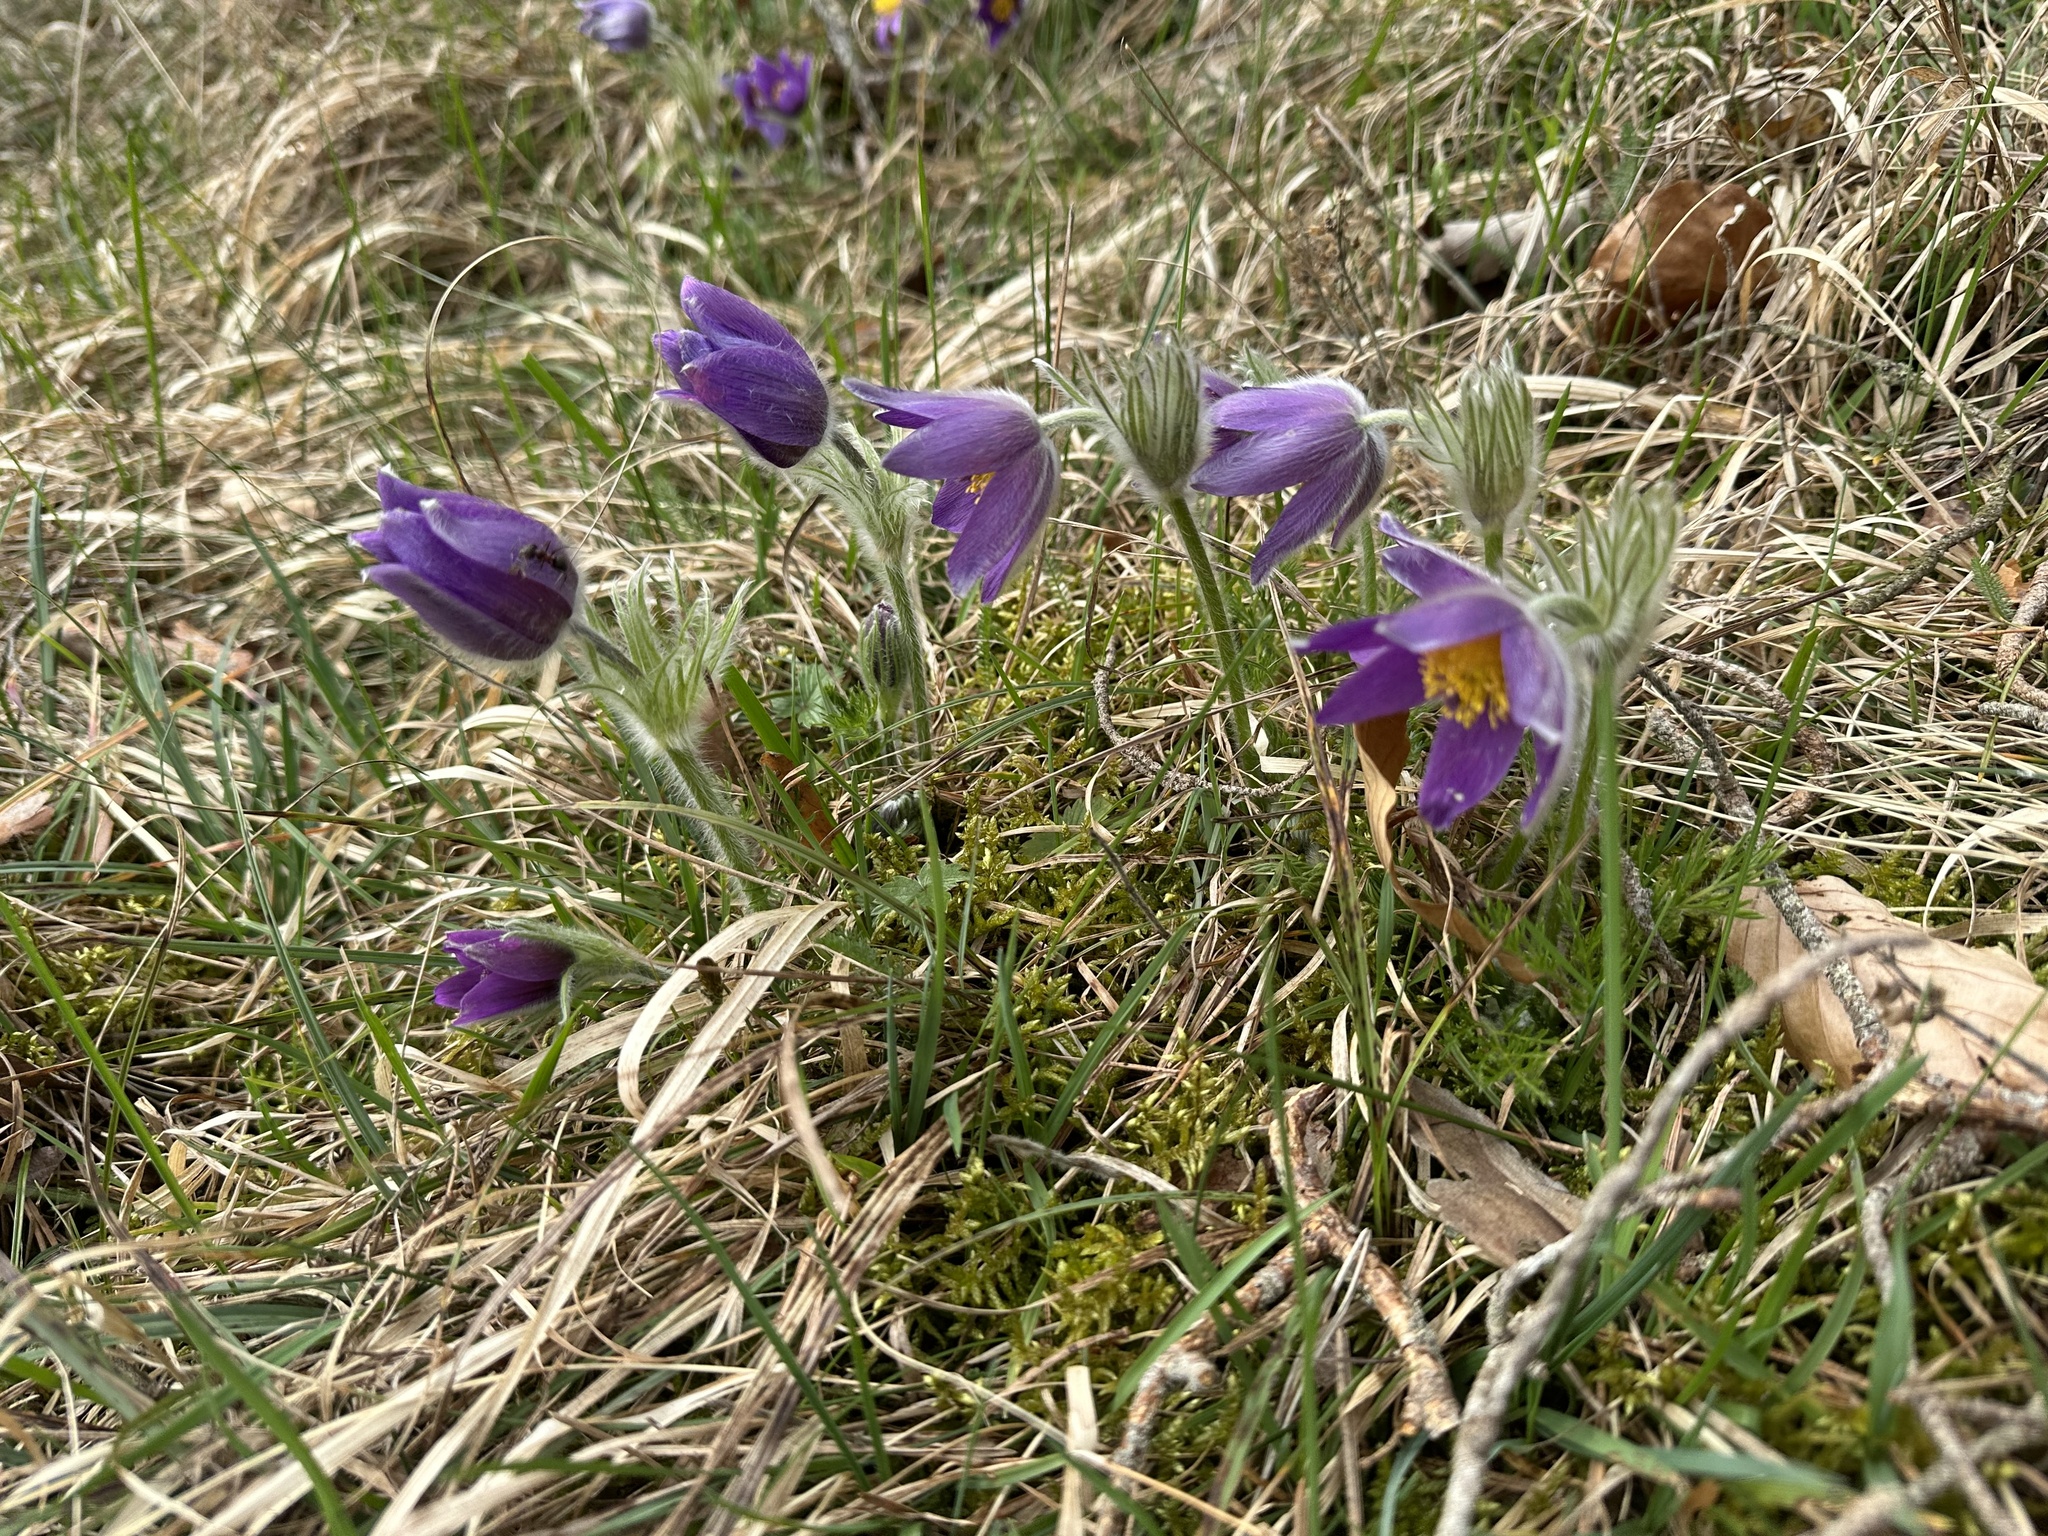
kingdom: Plantae
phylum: Tracheophyta
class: Magnoliopsida
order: Ranunculales
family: Ranunculaceae
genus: Pulsatilla
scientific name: Pulsatilla vulgaris
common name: Pasqueflower
